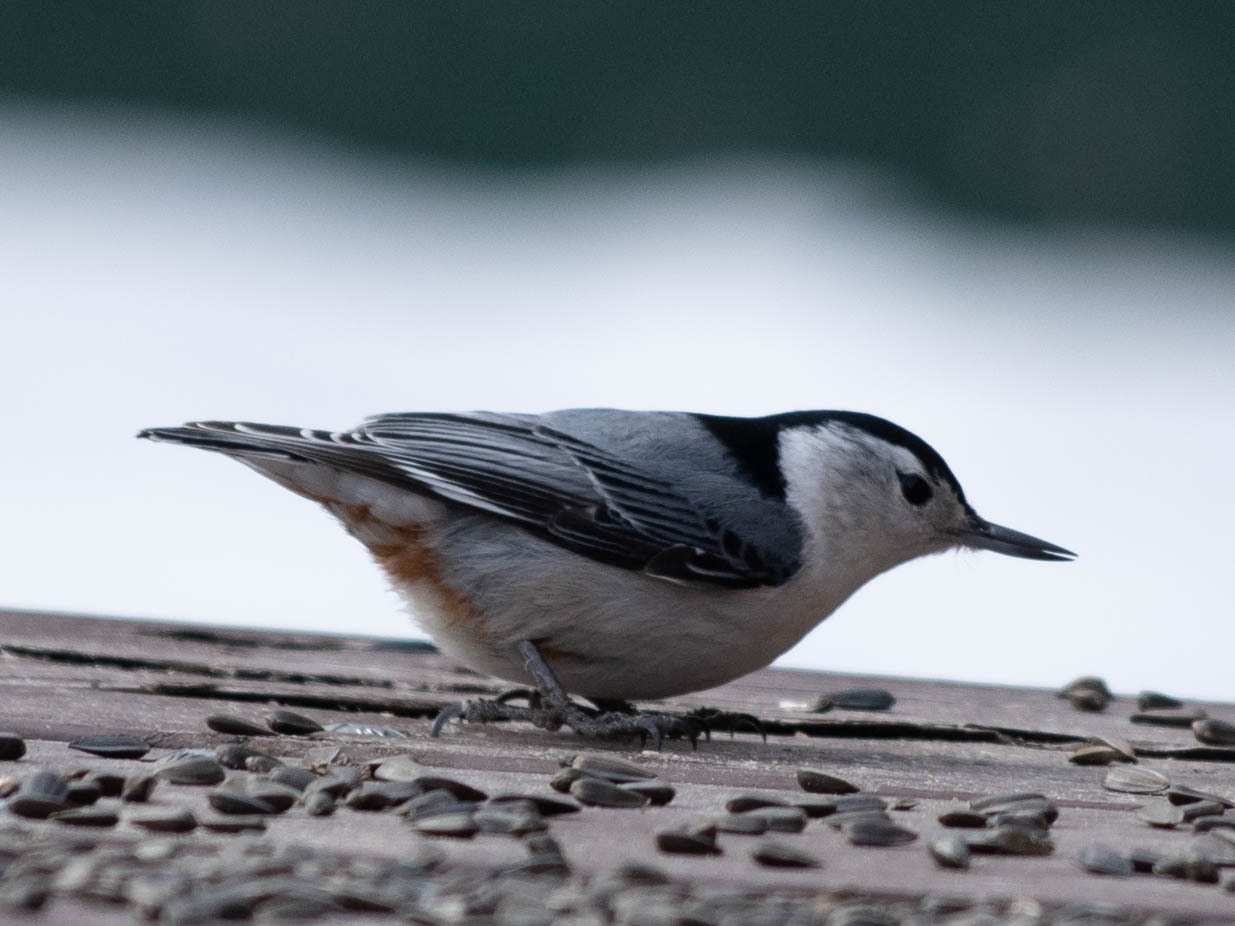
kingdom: Animalia
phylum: Chordata
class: Aves
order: Passeriformes
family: Sittidae
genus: Sitta
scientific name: Sitta carolinensis
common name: White-breasted nuthatch
